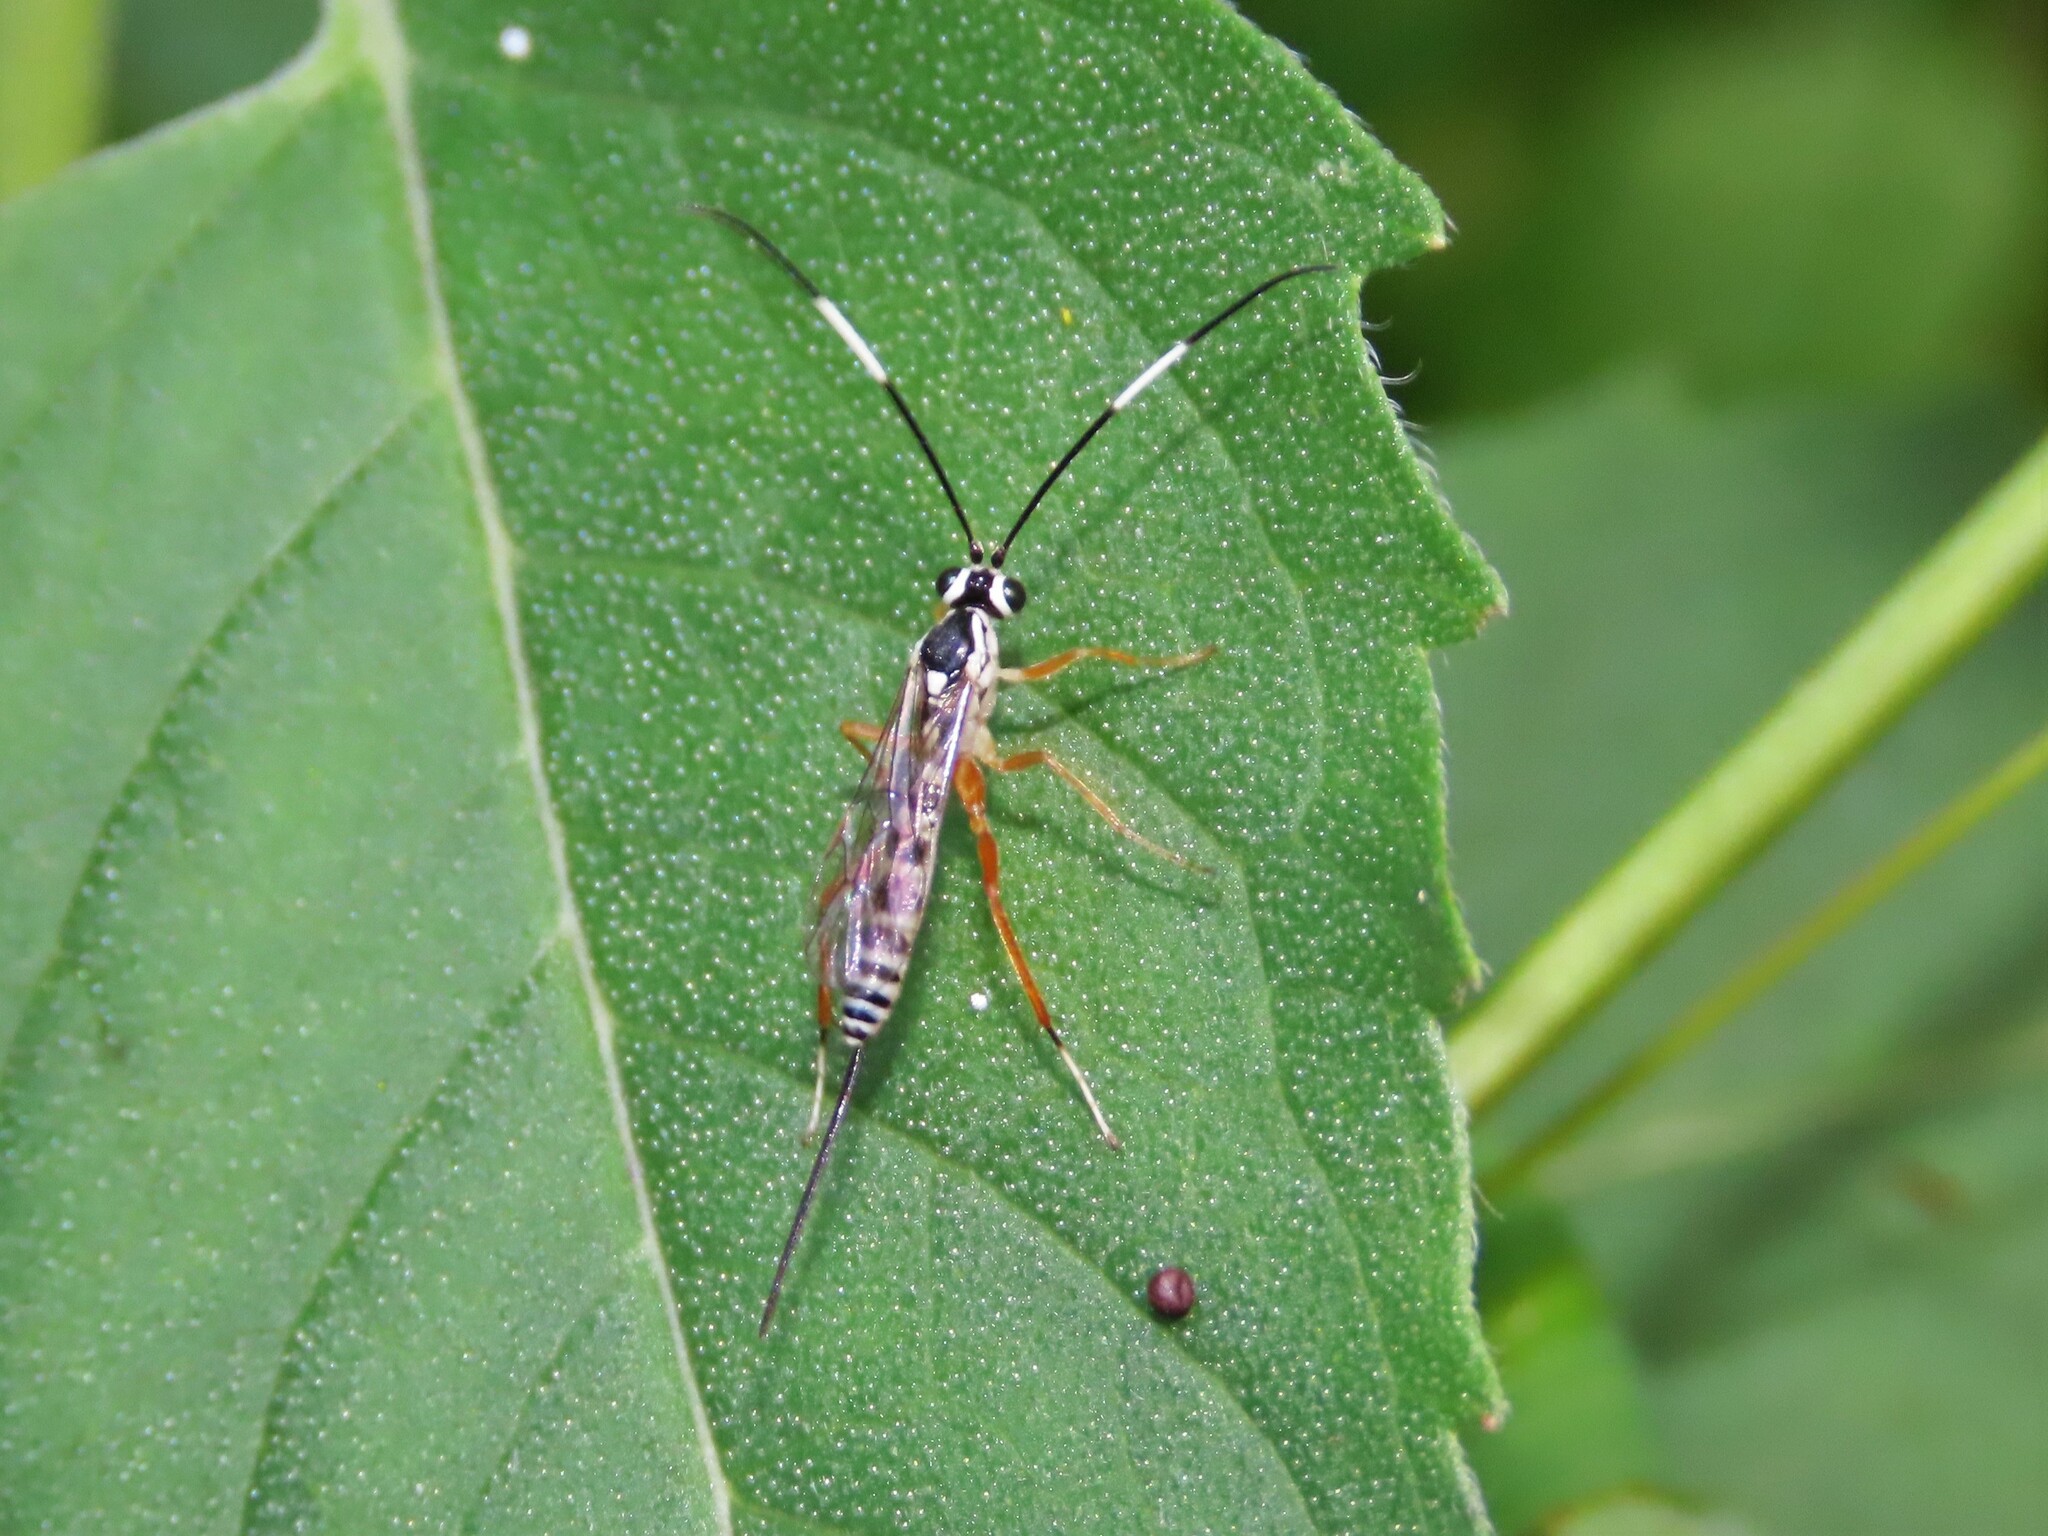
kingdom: Animalia
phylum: Arthropoda
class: Insecta
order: Hymenoptera
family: Ichneumonidae
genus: Sphelodon
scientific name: Sphelodon phoxopteridis
